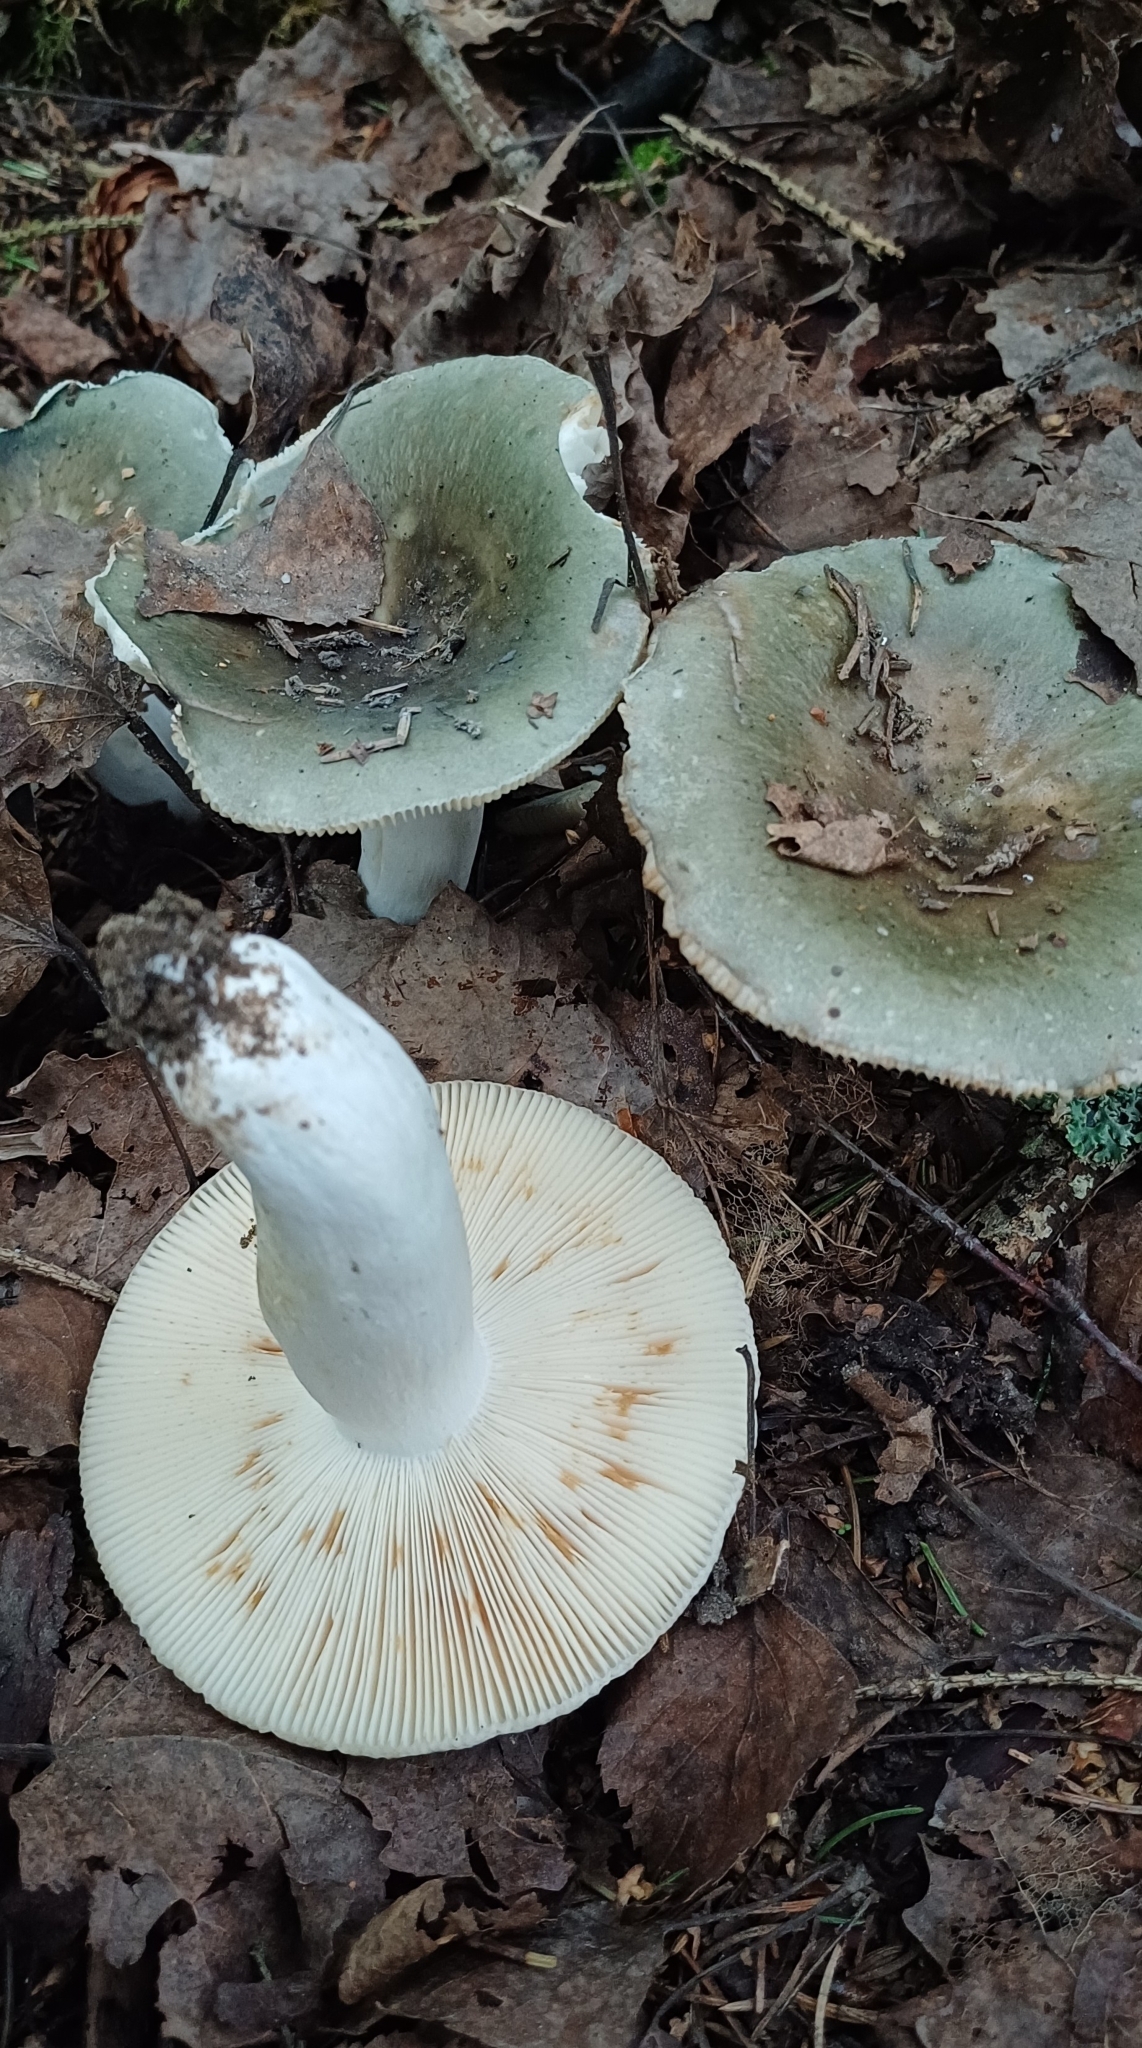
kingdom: Fungi
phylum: Basidiomycota
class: Agaricomycetes
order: Russulales
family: Russulaceae
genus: Russula
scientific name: Russula aeruginea
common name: Green brittlegill
